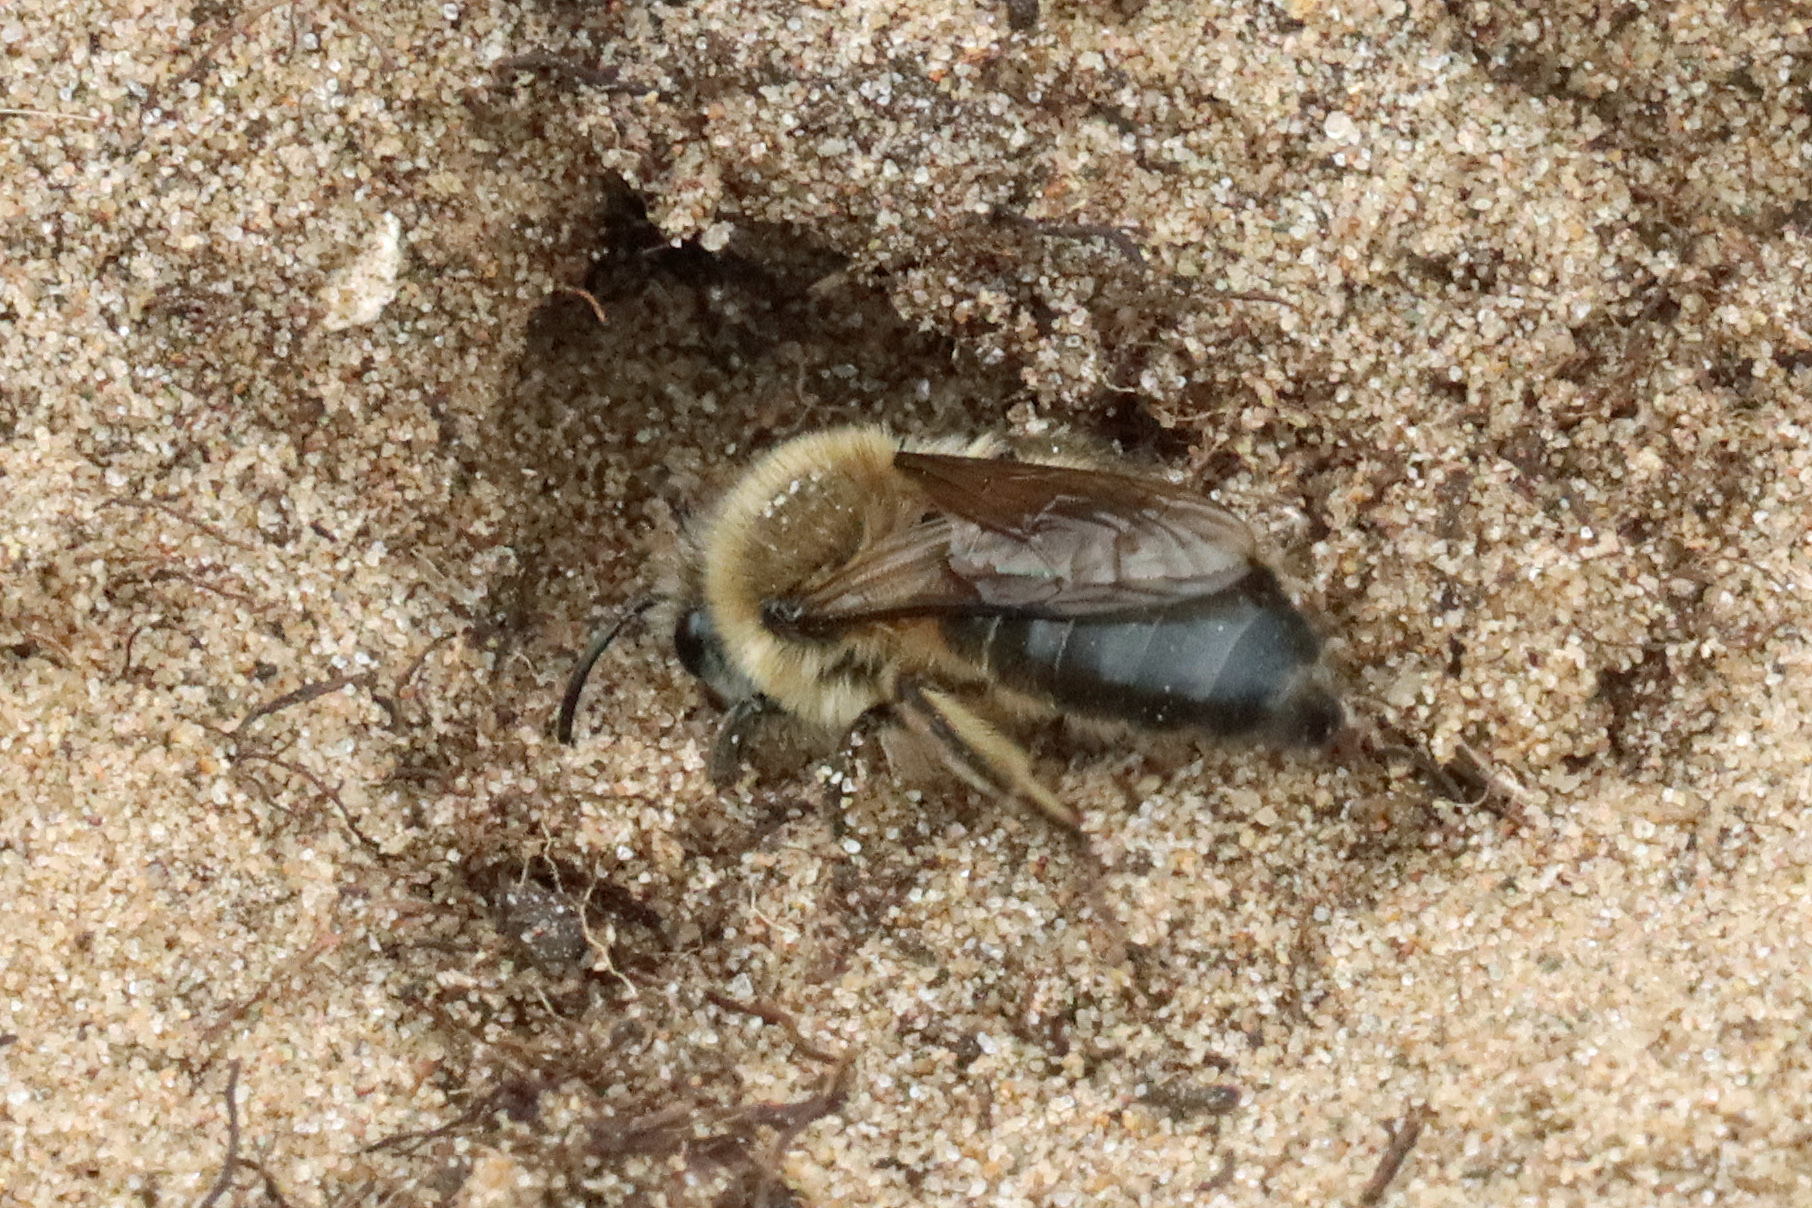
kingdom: Animalia
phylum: Arthropoda
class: Insecta
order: Hymenoptera
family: Colletidae
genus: Colletes
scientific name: Colletes cunicularius
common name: Early colletes
